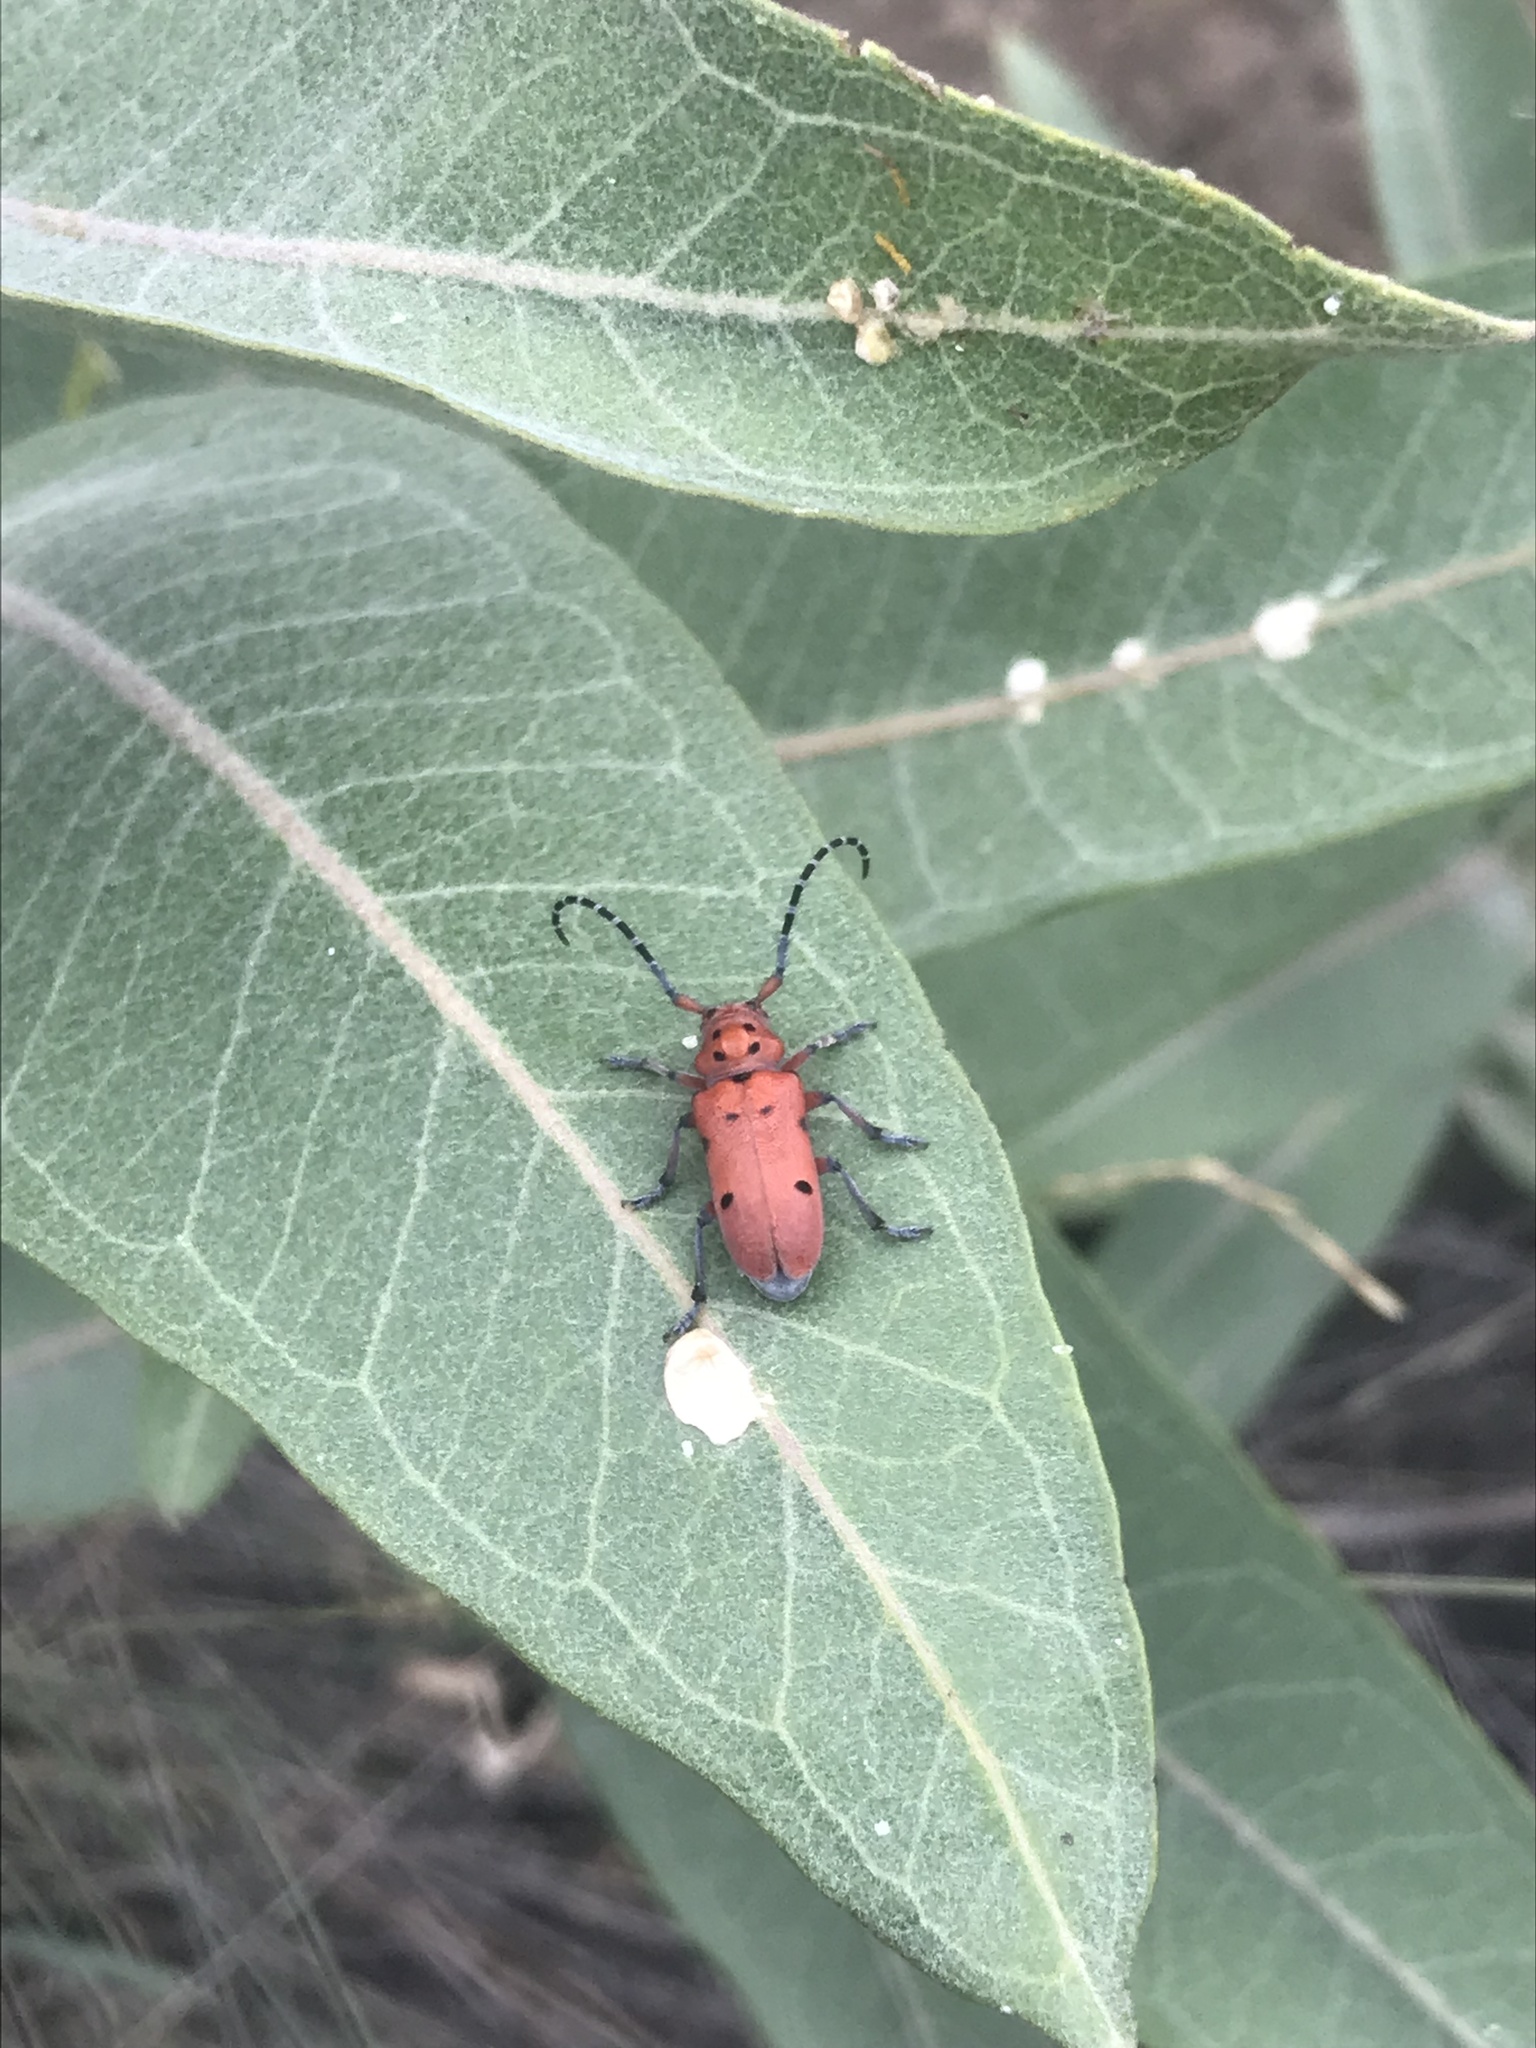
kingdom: Animalia
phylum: Arthropoda
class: Insecta
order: Coleoptera
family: Cerambycidae
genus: Tetraopes
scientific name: Tetraopes femoratus
